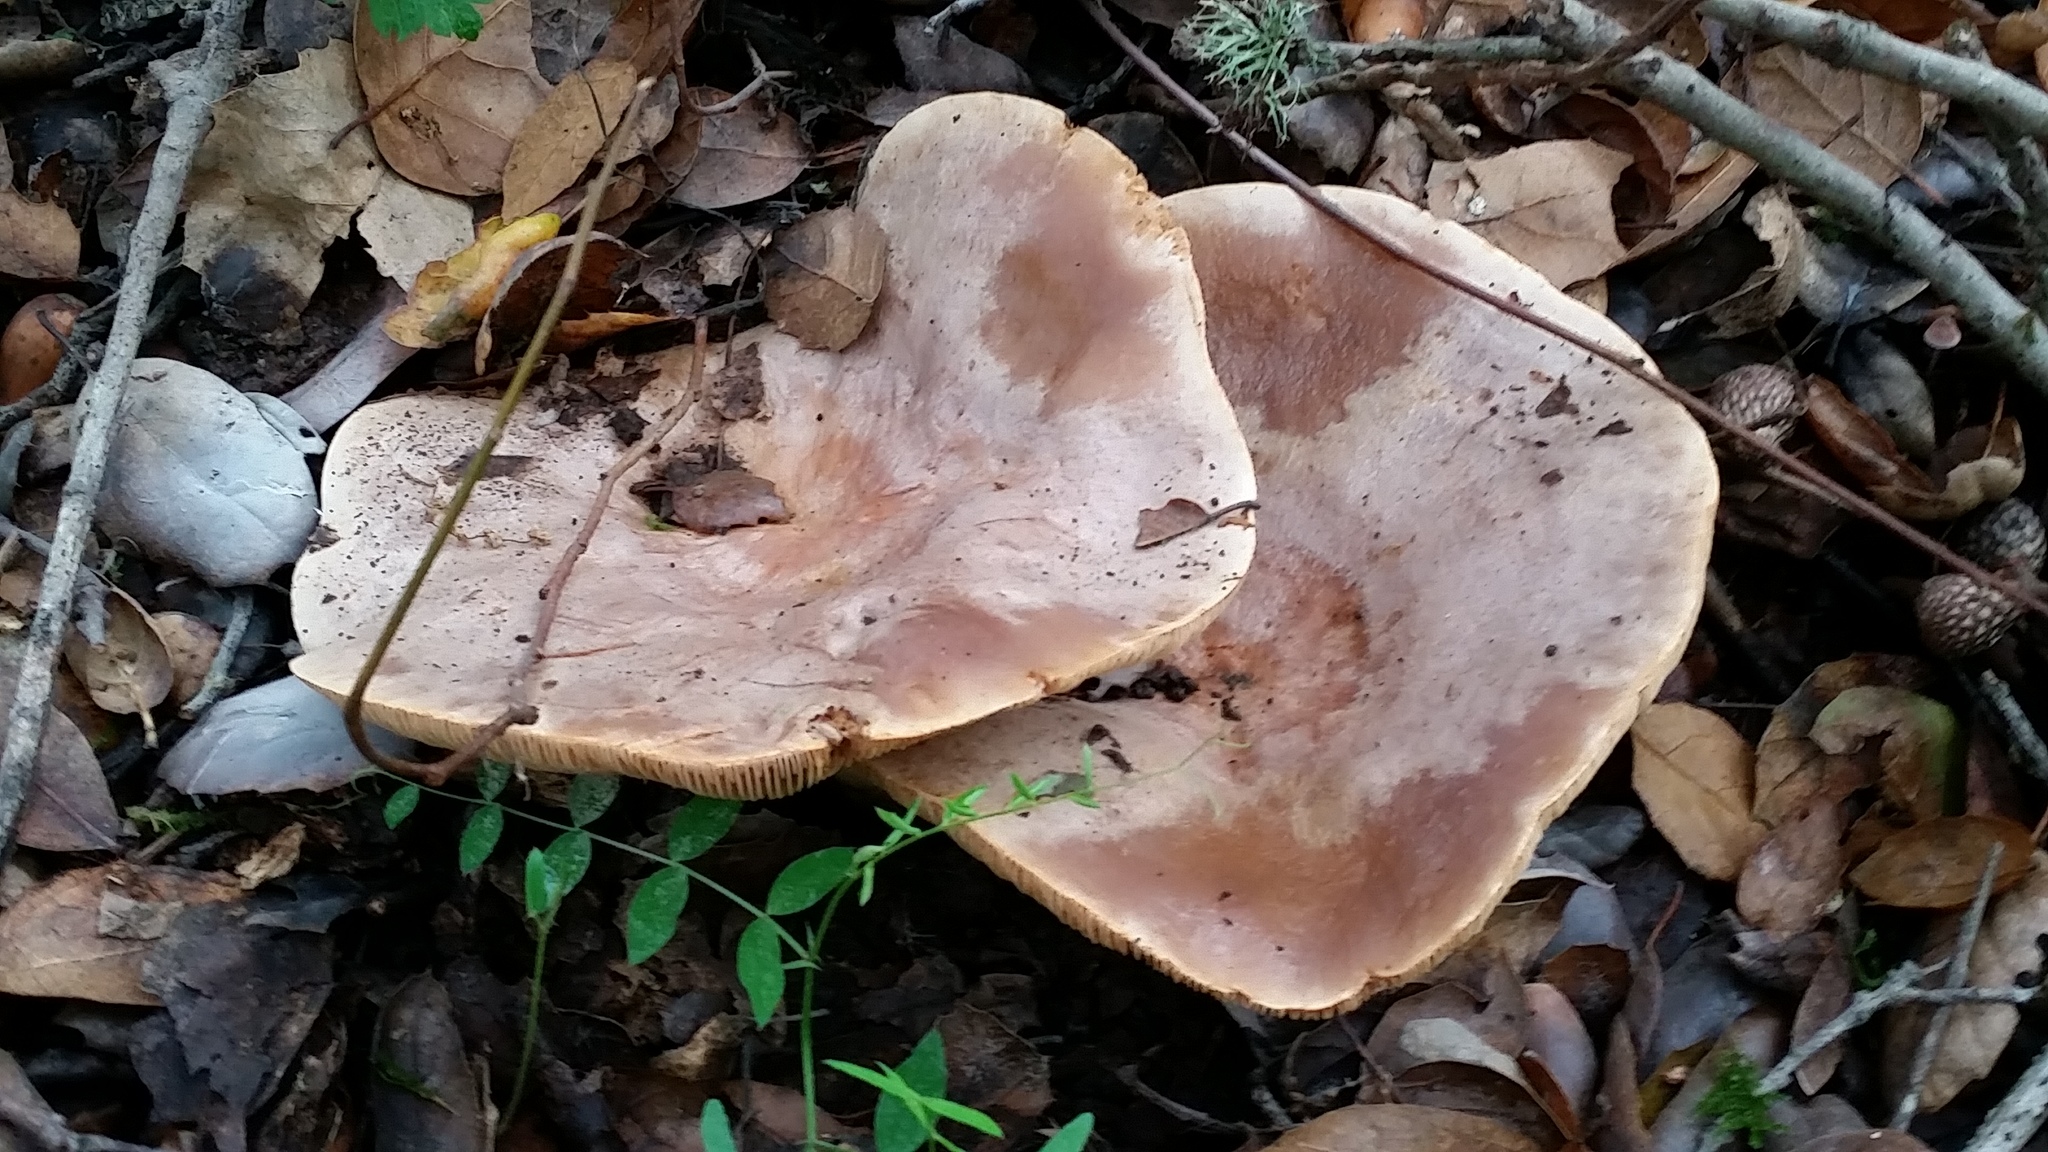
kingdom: Fungi
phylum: Basidiomycota
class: Agaricomycetes
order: Russulales
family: Russulaceae
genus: Lactarius
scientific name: Lactarius argillaceifolius
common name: Clay-gilled milkcap
